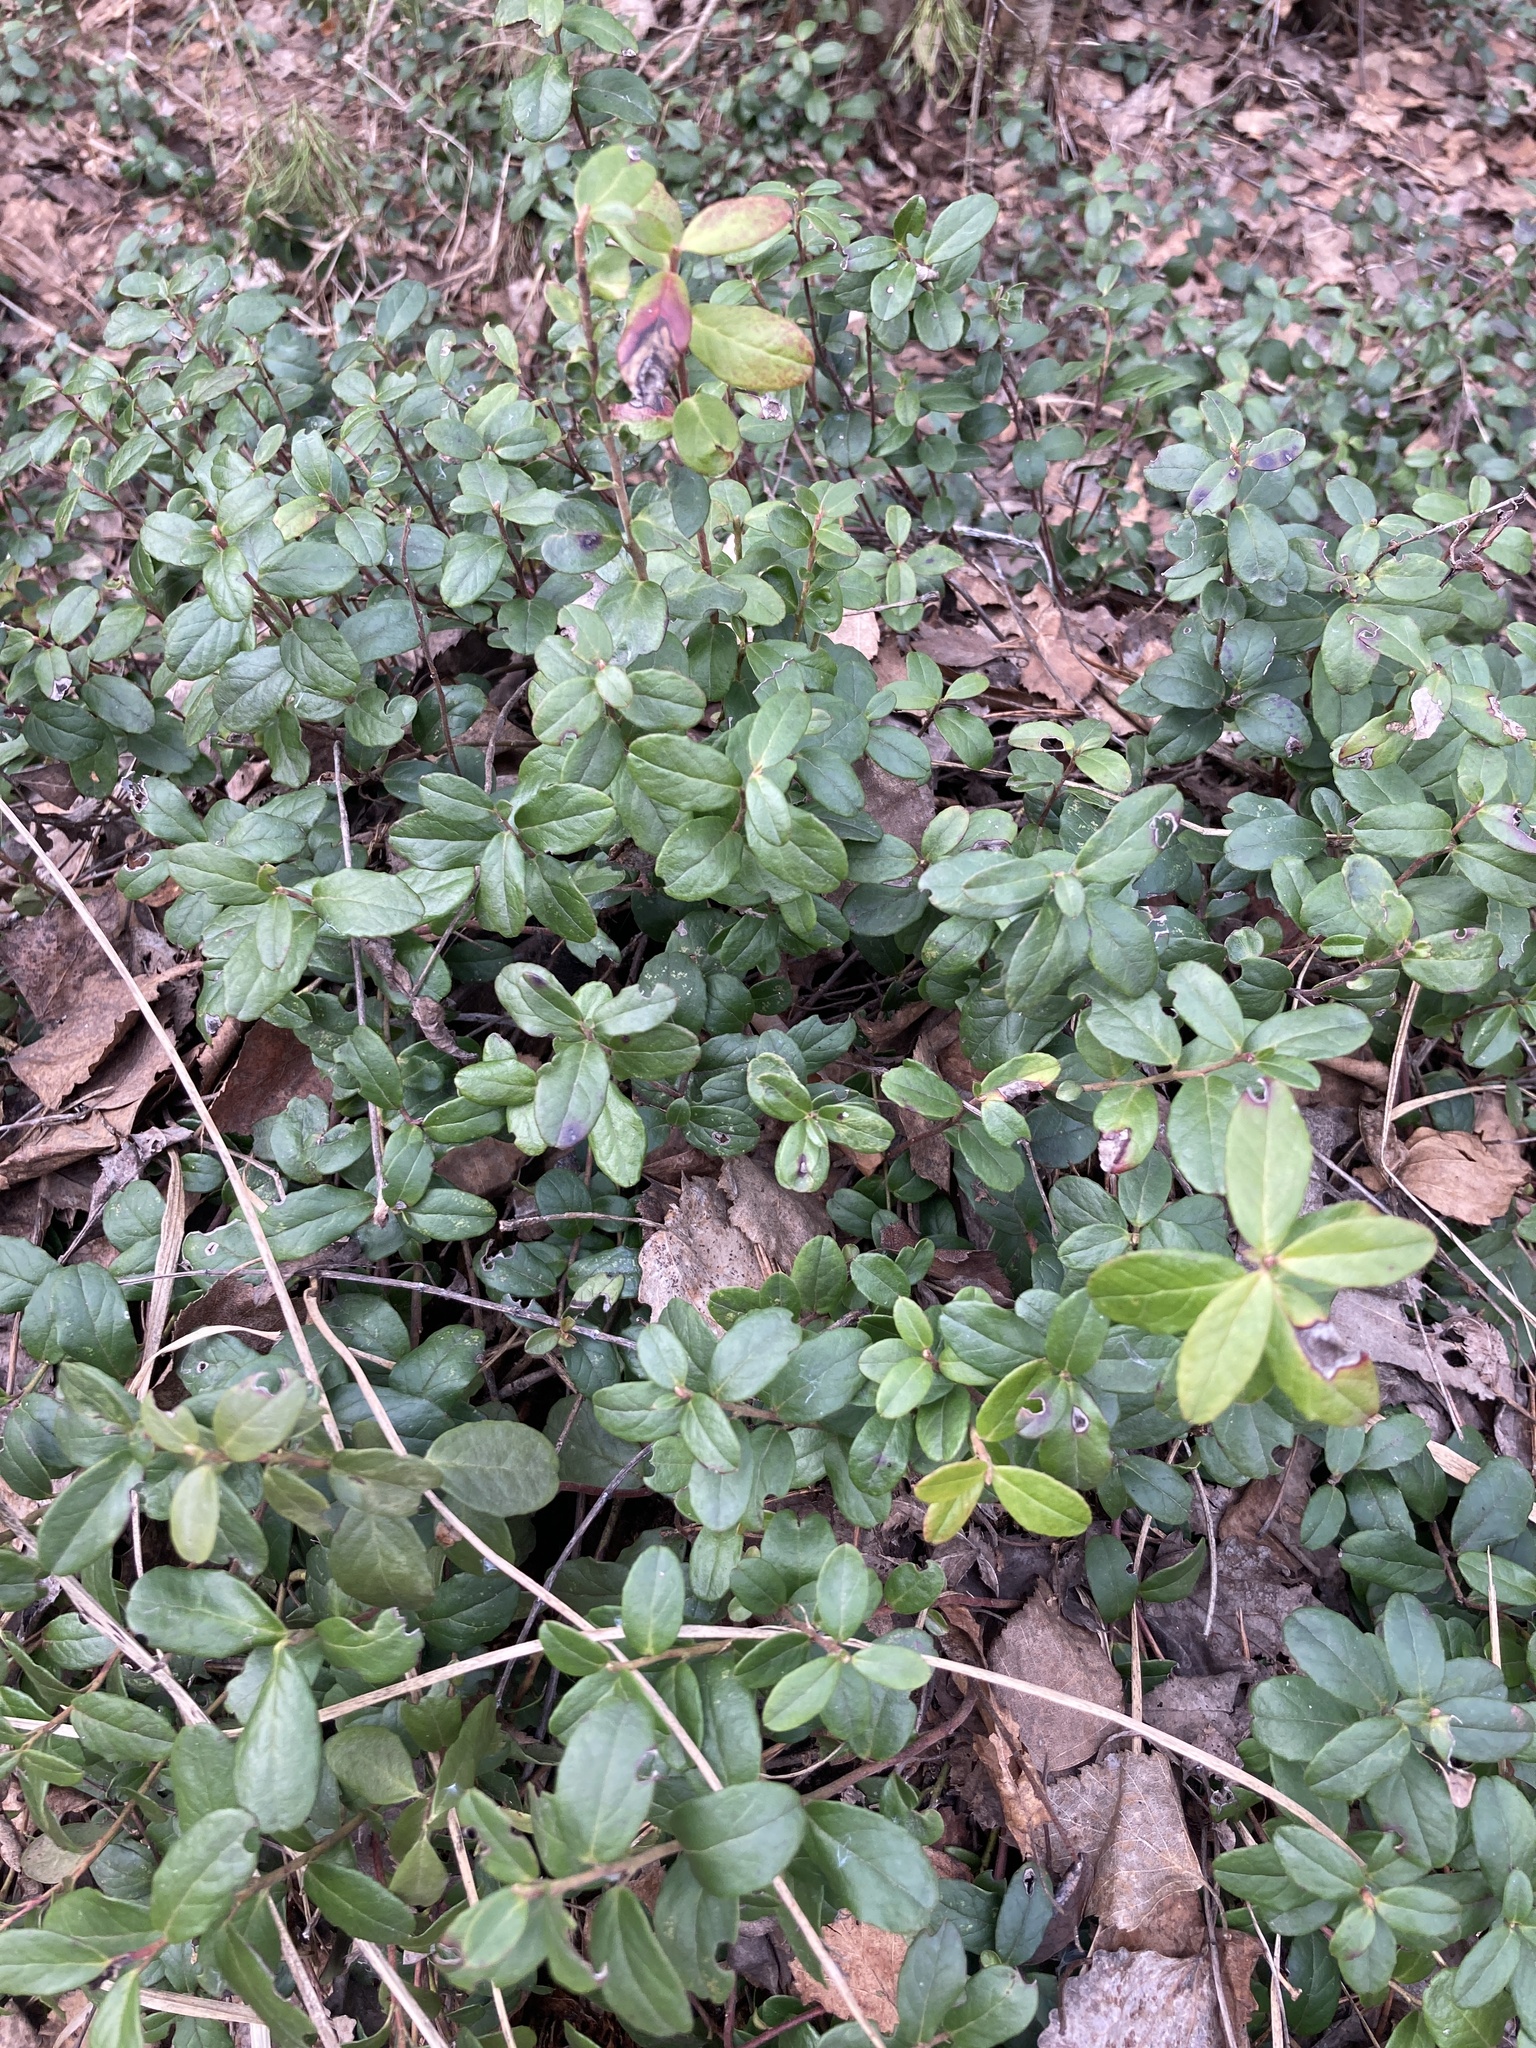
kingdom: Plantae
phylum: Tracheophyta
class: Magnoliopsida
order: Ericales
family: Ericaceae
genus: Vaccinium
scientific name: Vaccinium vitis-idaea
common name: Cowberry
